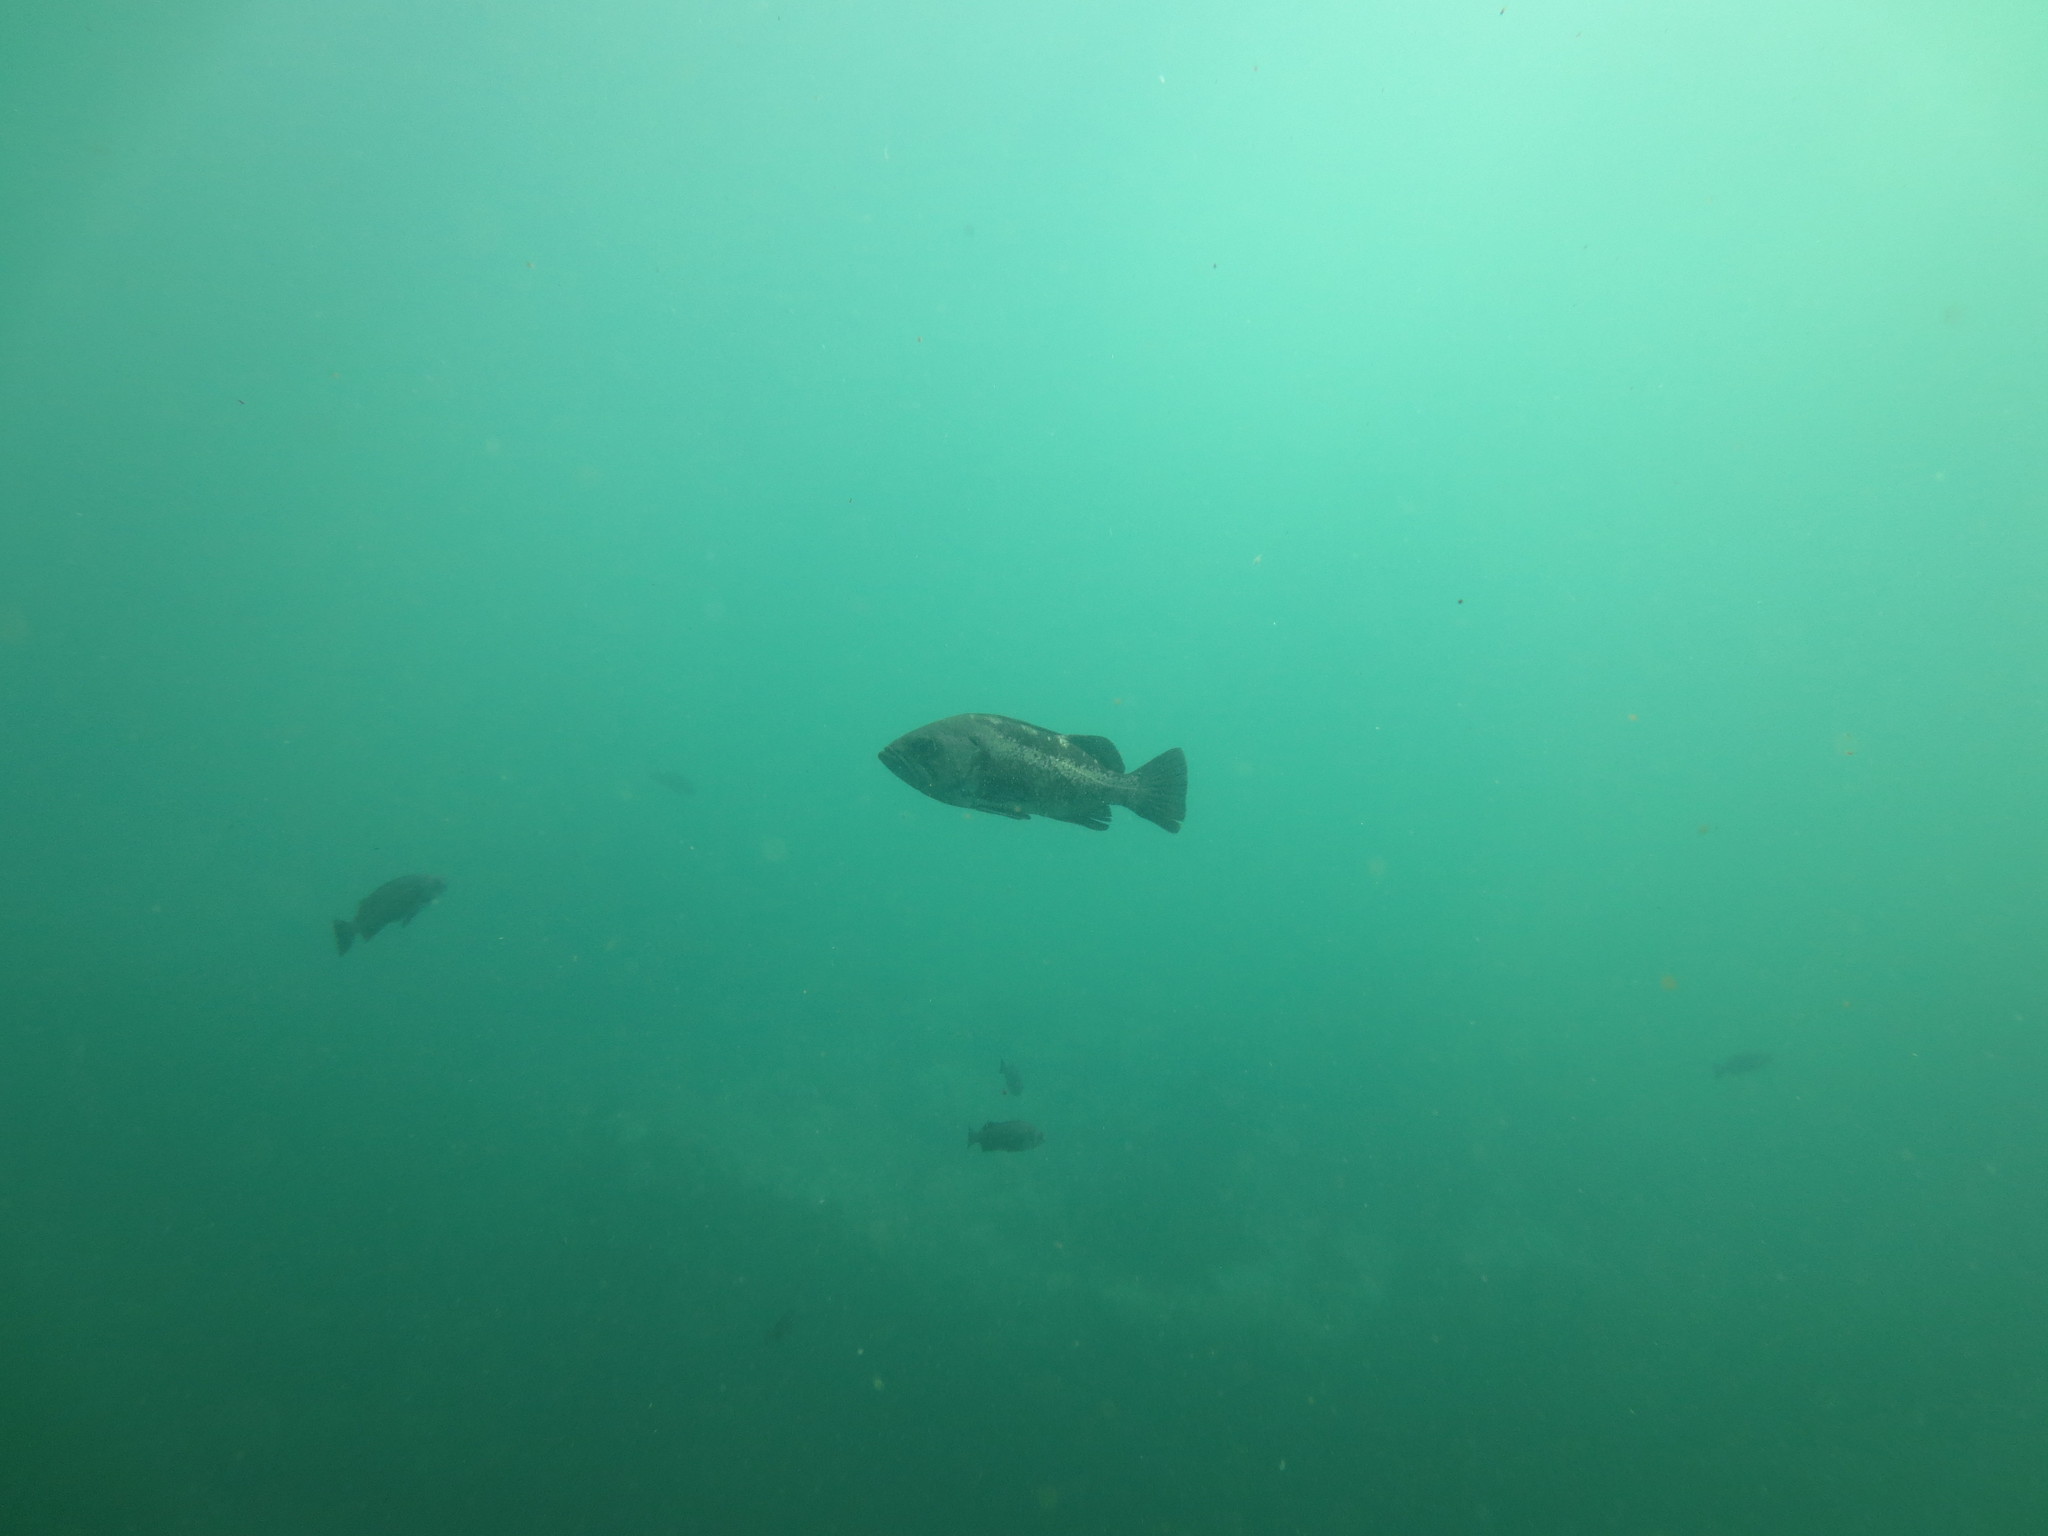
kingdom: Animalia
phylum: Chordata
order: Scorpaeniformes
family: Sebastidae
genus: Sebastes
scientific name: Sebastes melanops
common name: Black rockfish
